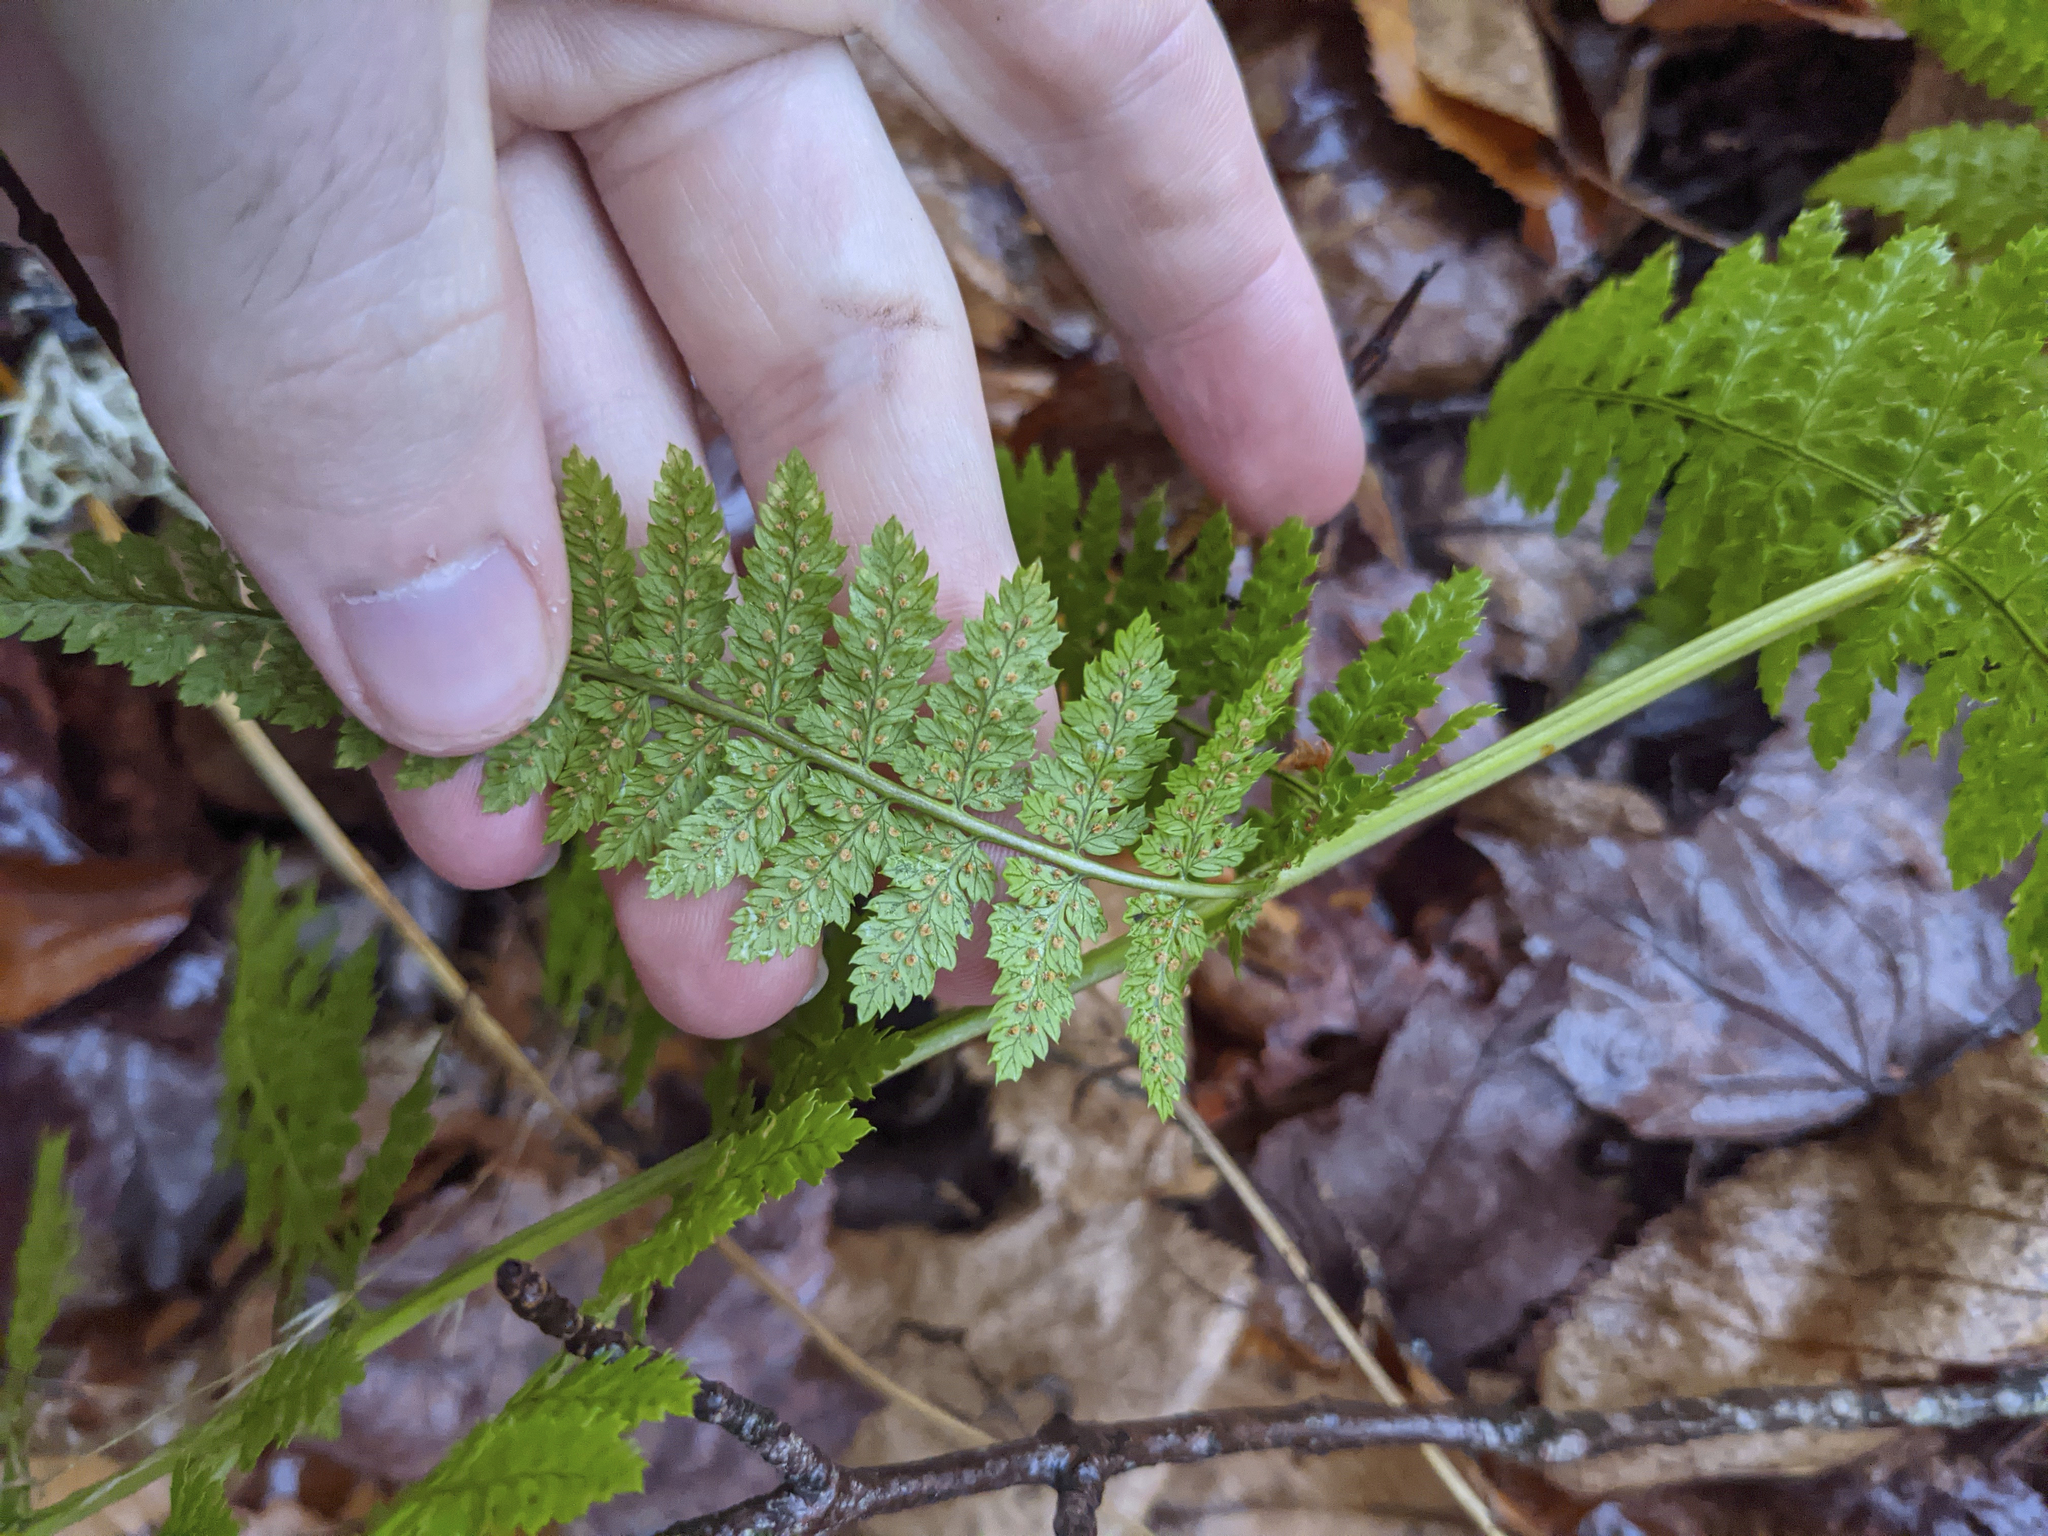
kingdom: Plantae
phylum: Tracheophyta
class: Polypodiopsida
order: Polypodiales
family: Dryopteridaceae
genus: Dryopteris
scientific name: Dryopteris intermedia
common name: Evergreen wood fern
